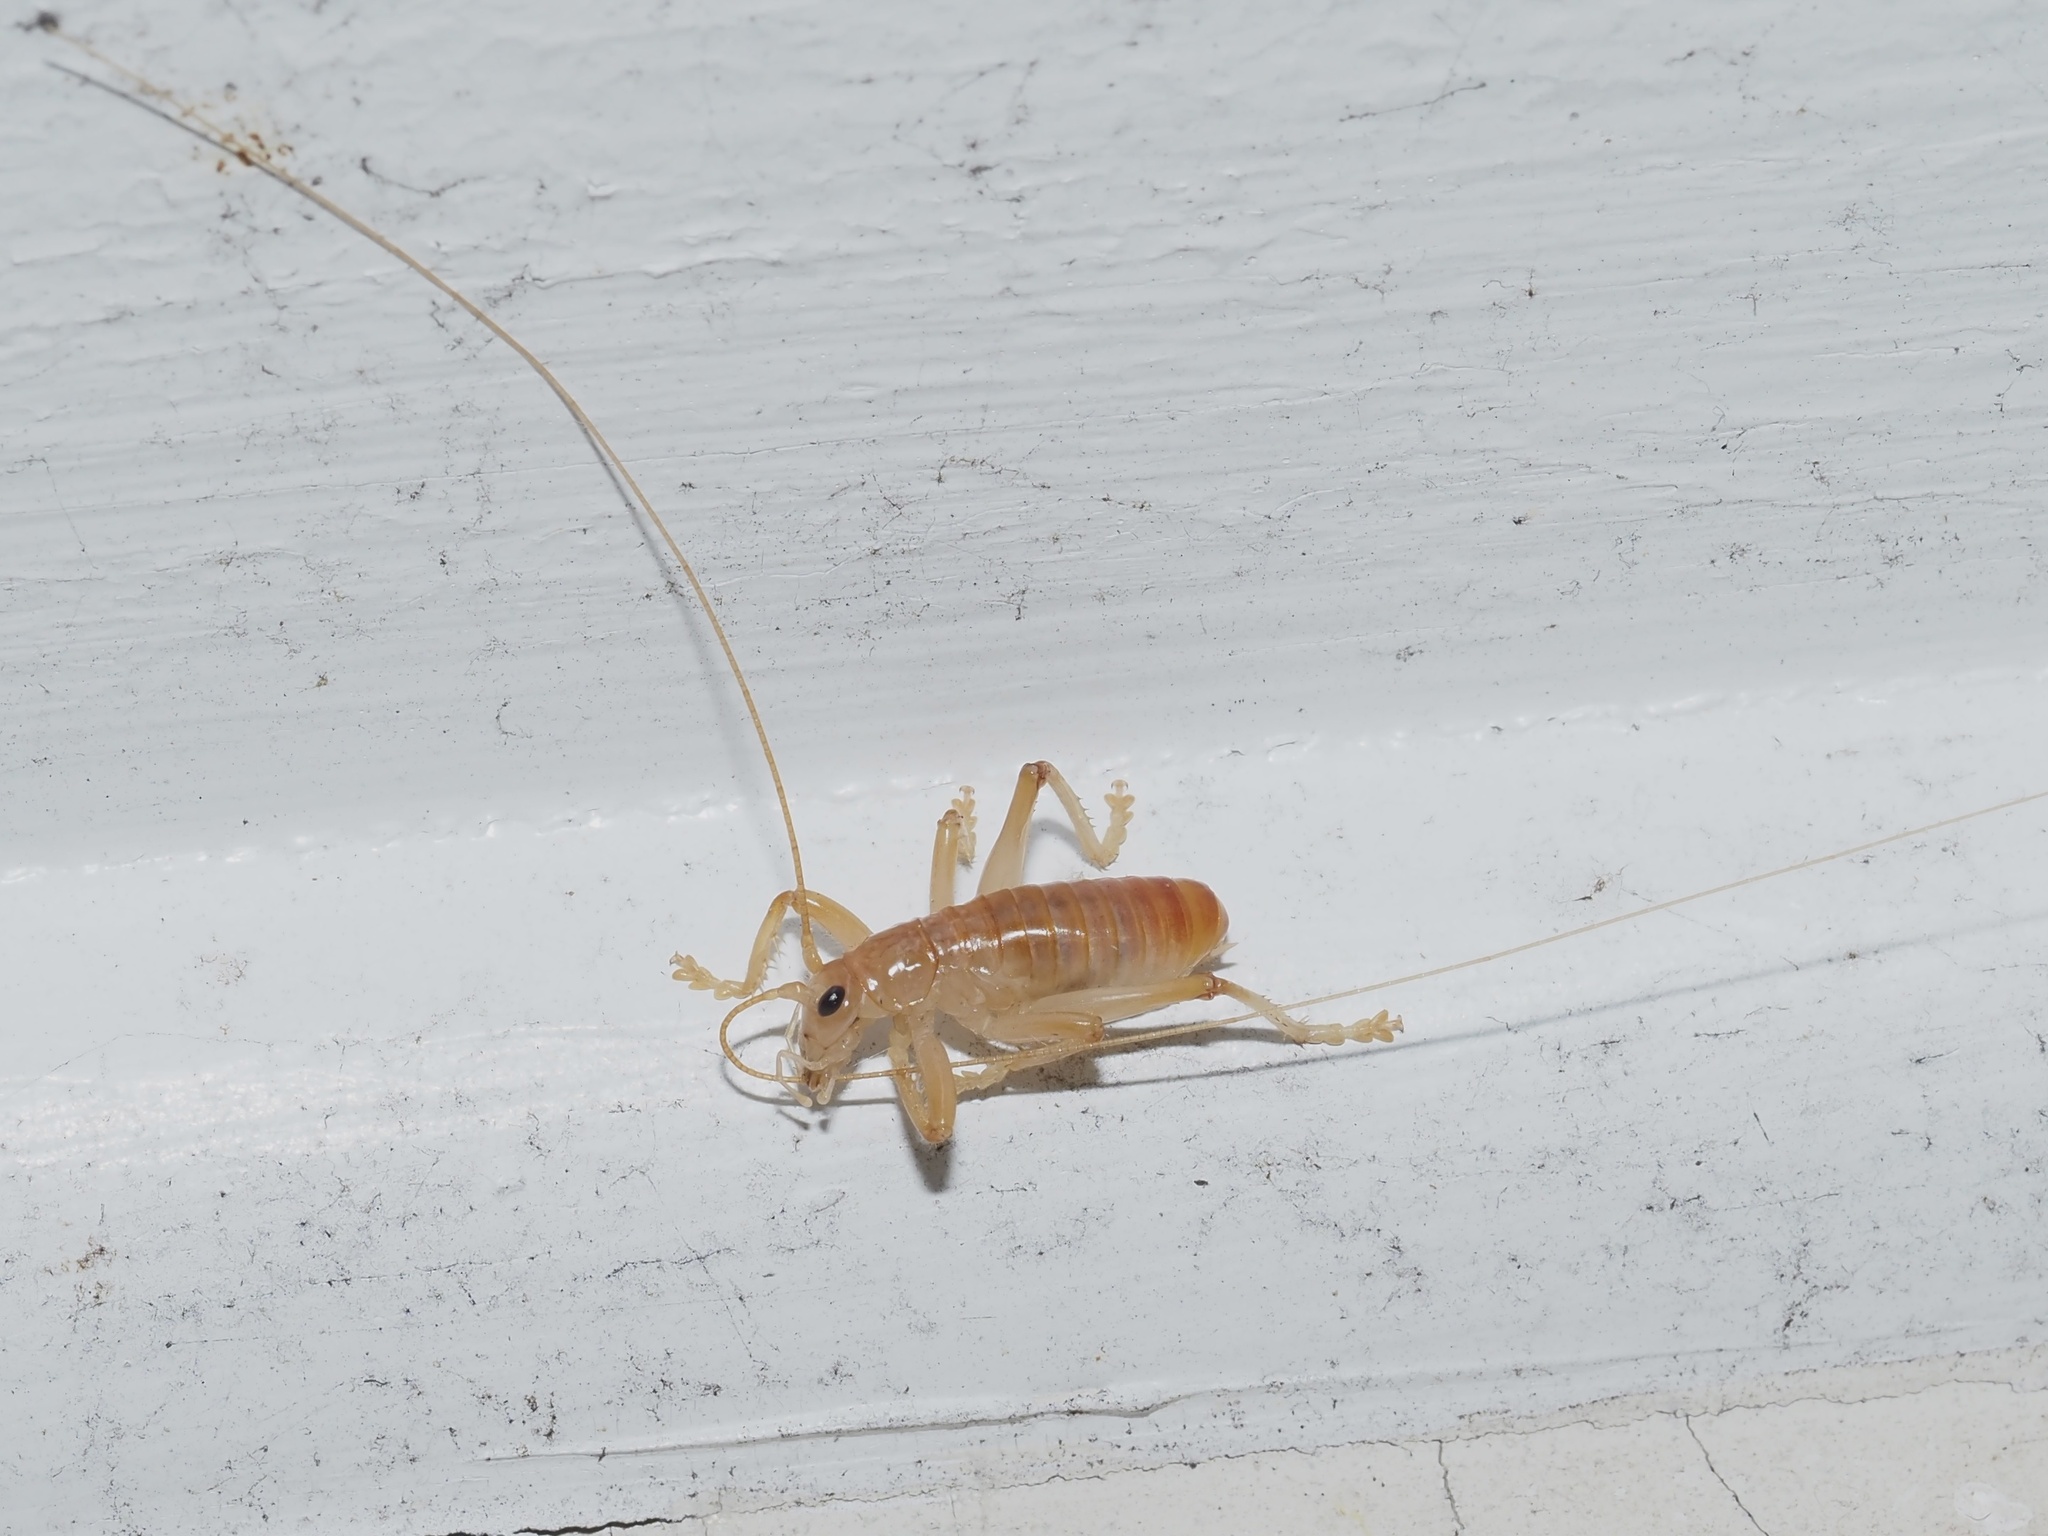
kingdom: Animalia
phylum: Arthropoda
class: Insecta
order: Orthoptera
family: Gryllacrididae
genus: Camptonotus
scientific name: Camptonotus carolinensis
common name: Carolina leaf-roller
